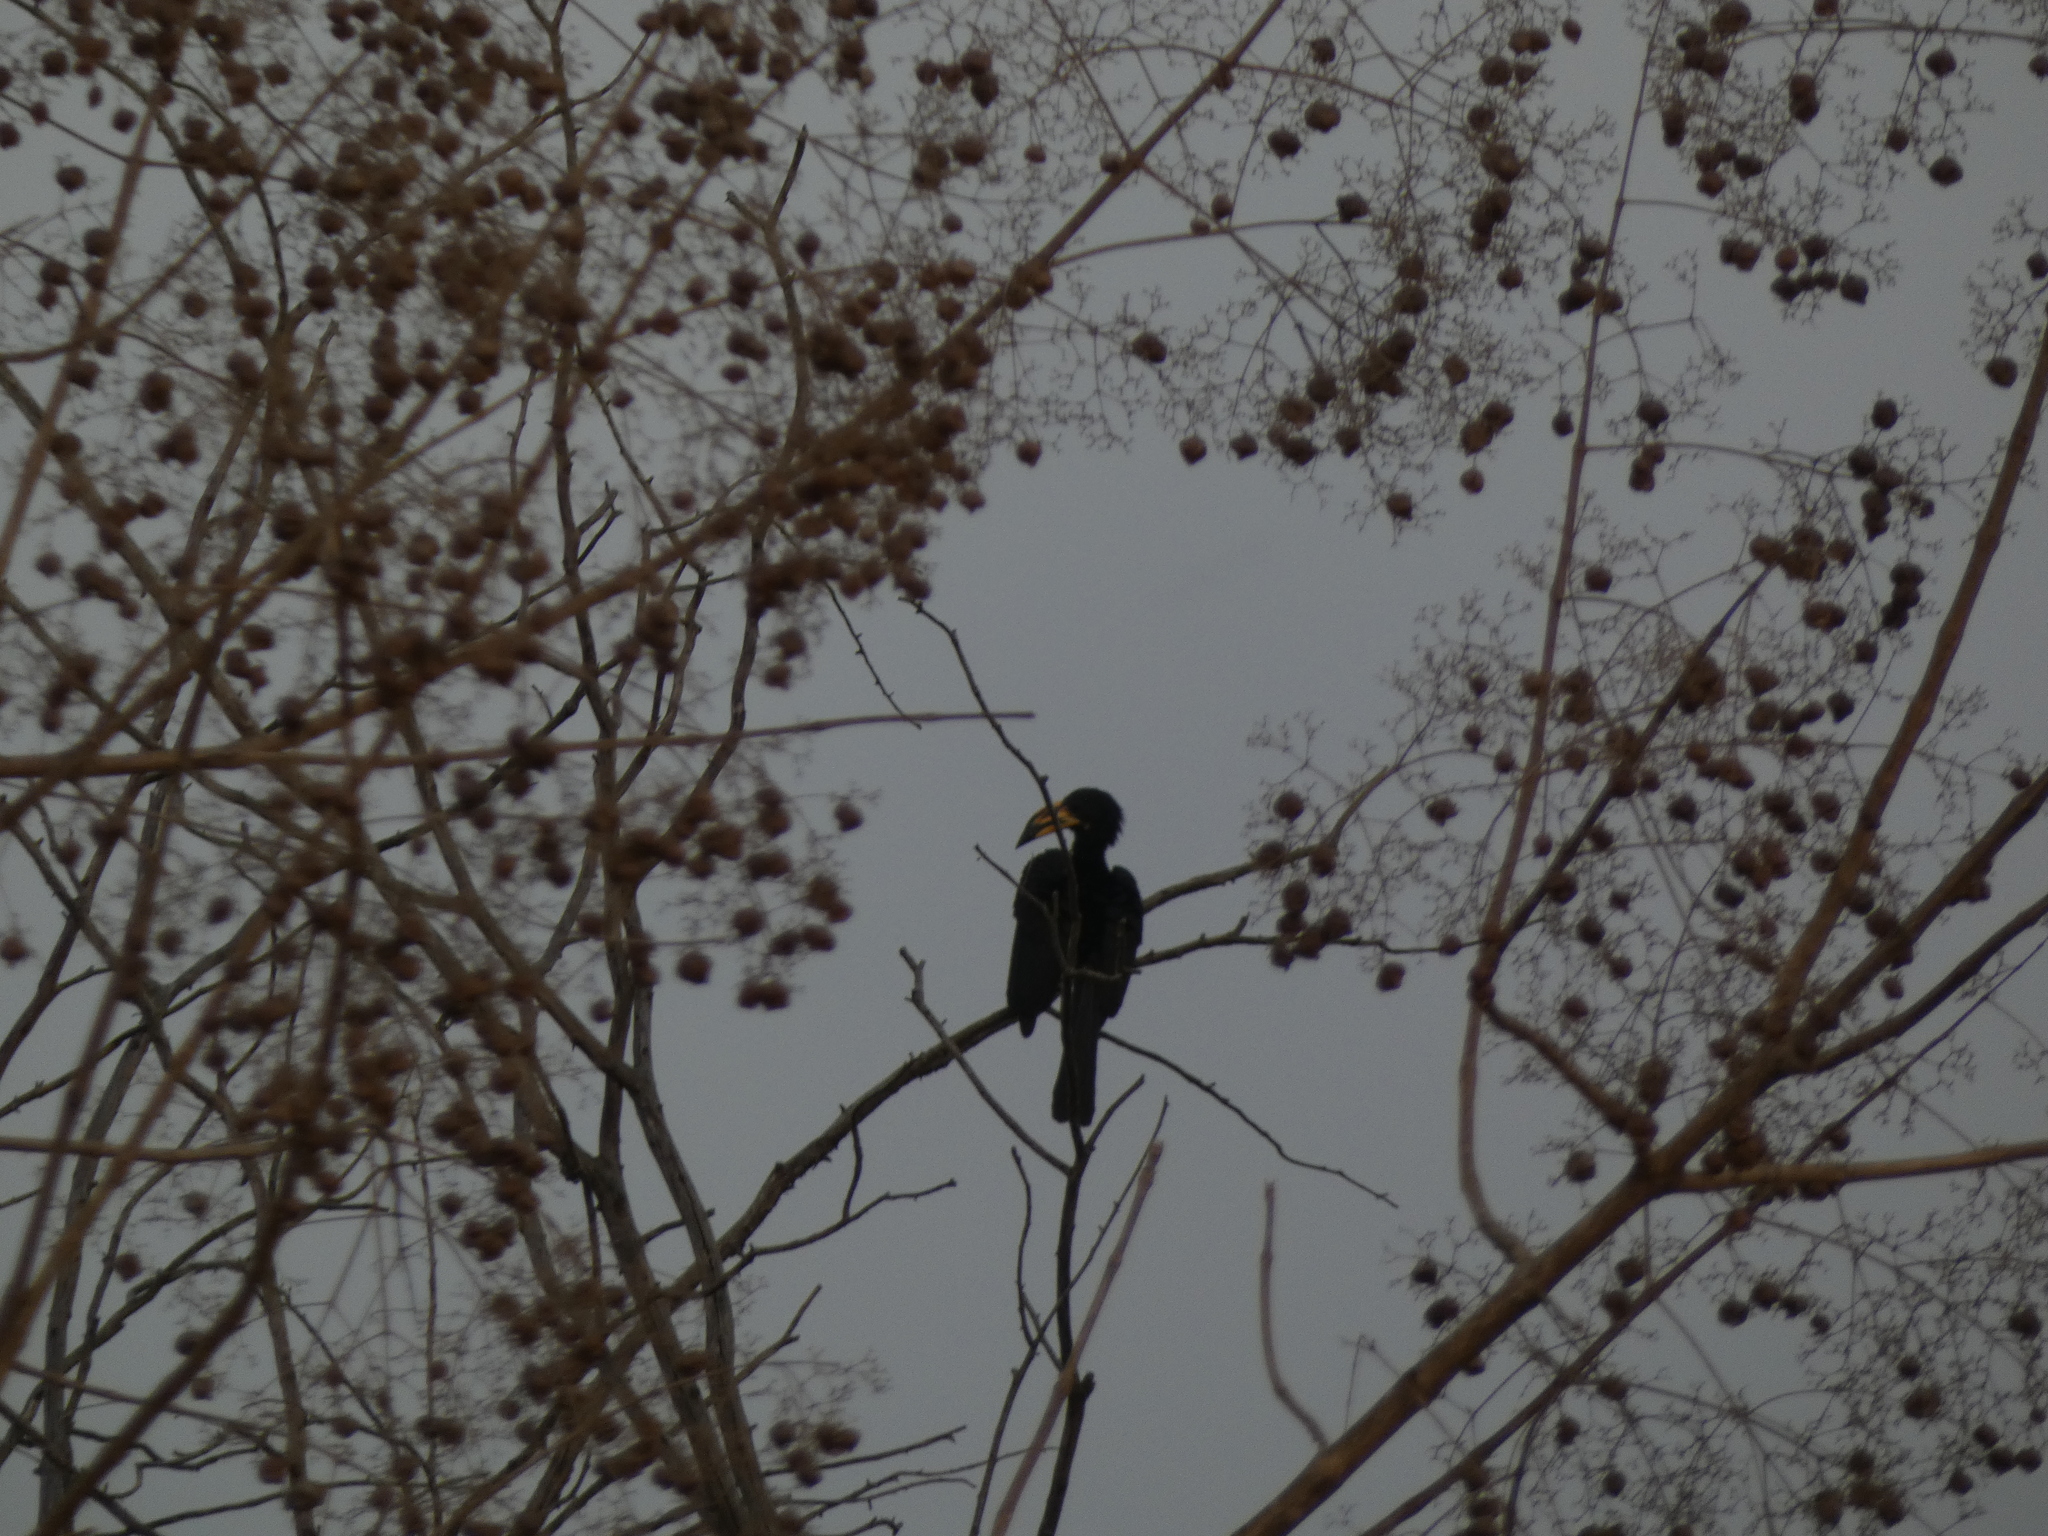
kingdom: Animalia
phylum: Chordata
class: Aves
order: Bucerotiformes
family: Bucerotidae
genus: Lophoceros
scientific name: Lophoceros fasciatus
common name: African pied hornbill
